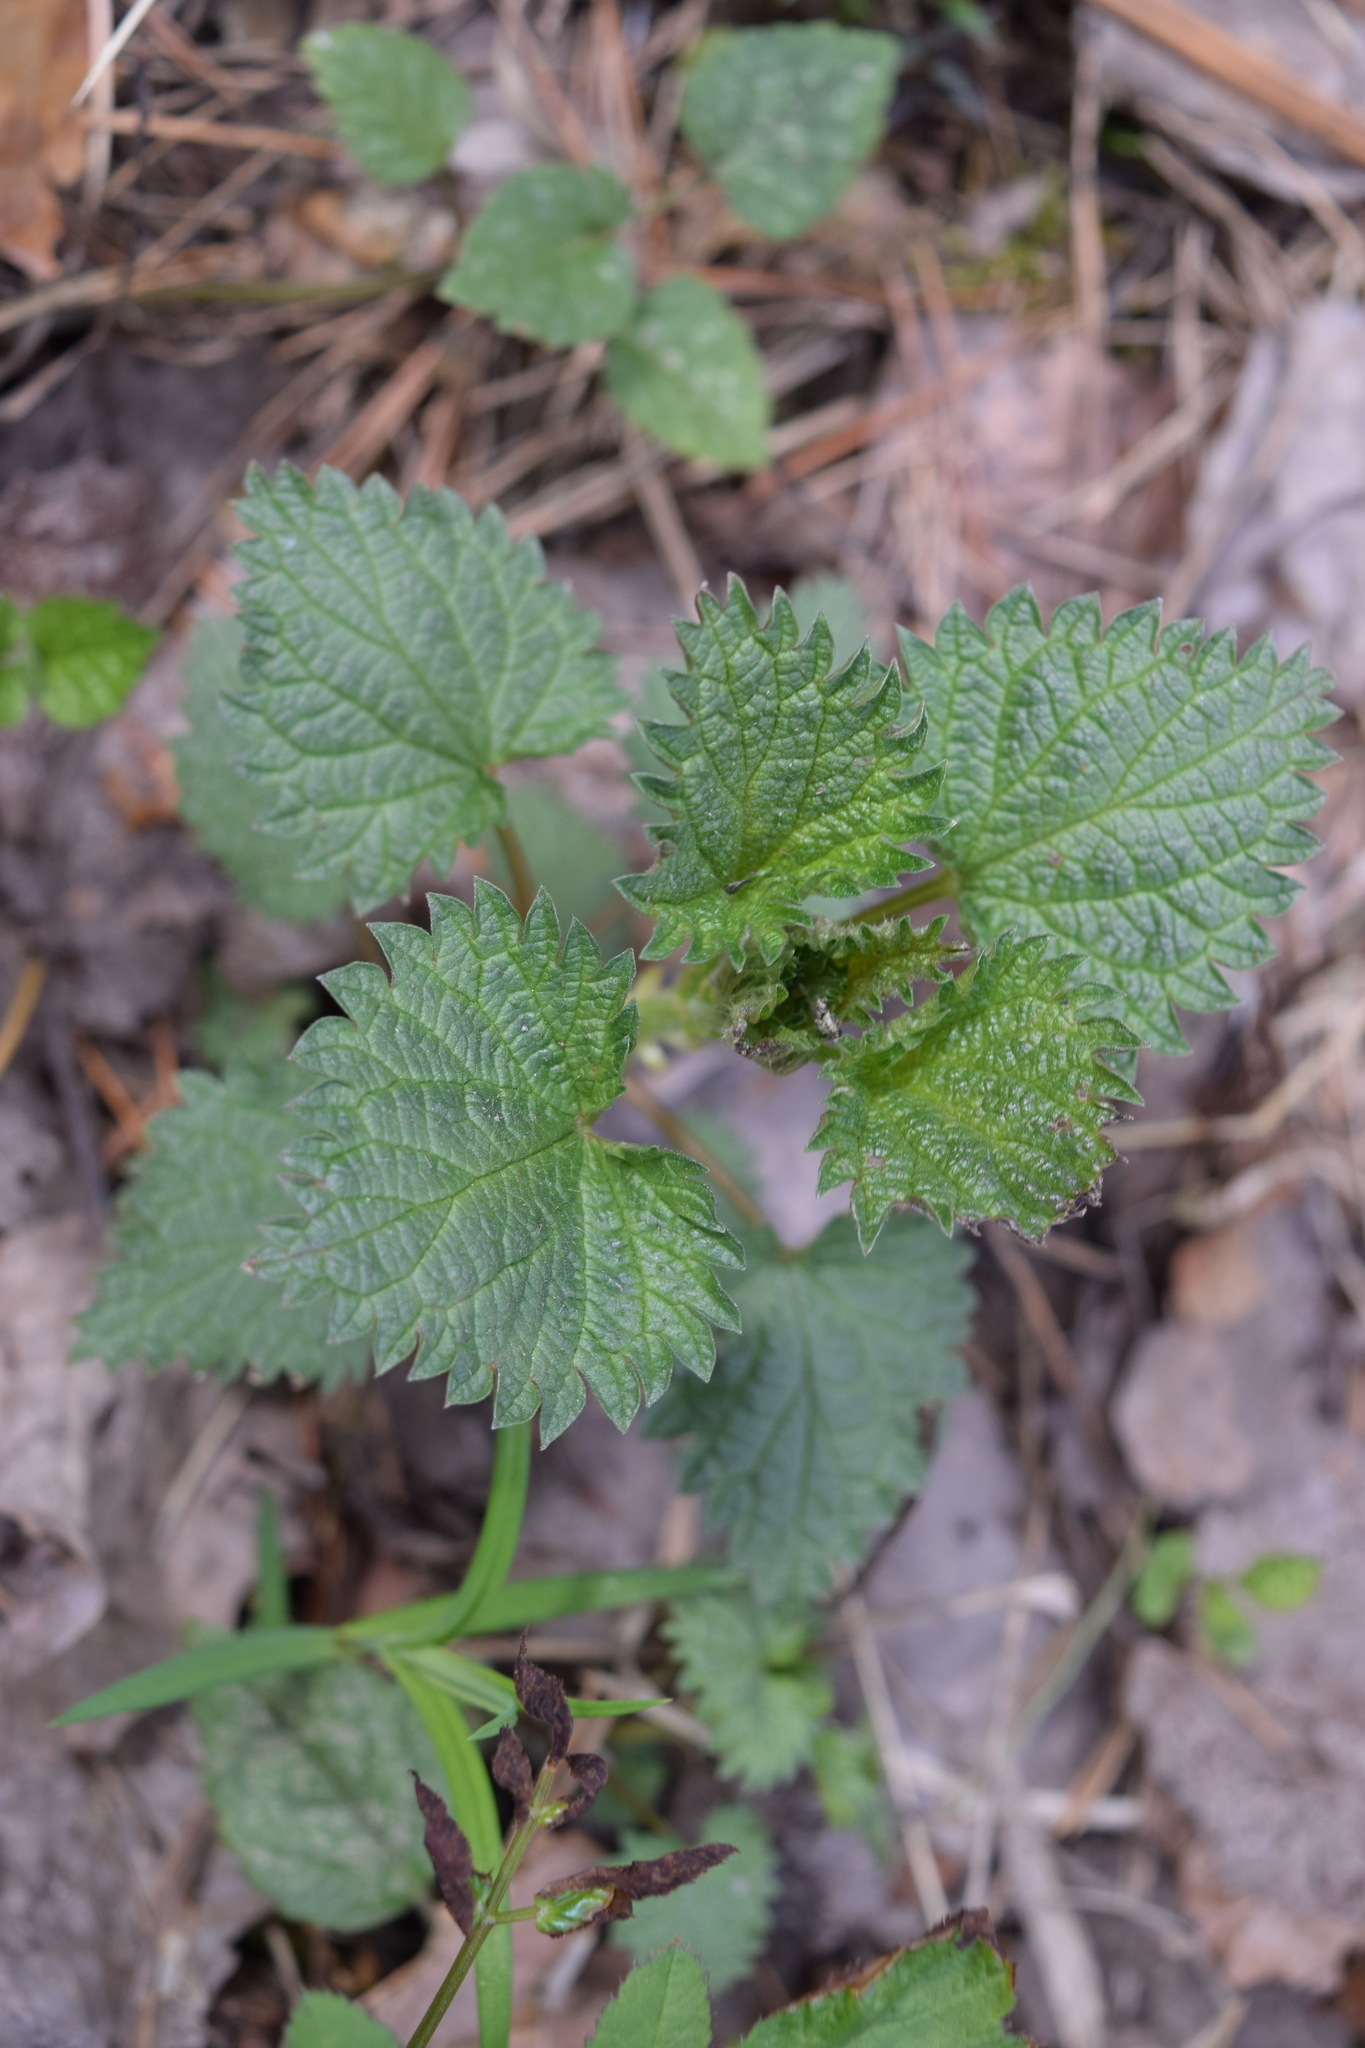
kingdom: Plantae
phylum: Tracheophyta
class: Magnoliopsida
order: Rosales
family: Urticaceae
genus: Urtica
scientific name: Urtica dioica
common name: Common nettle
